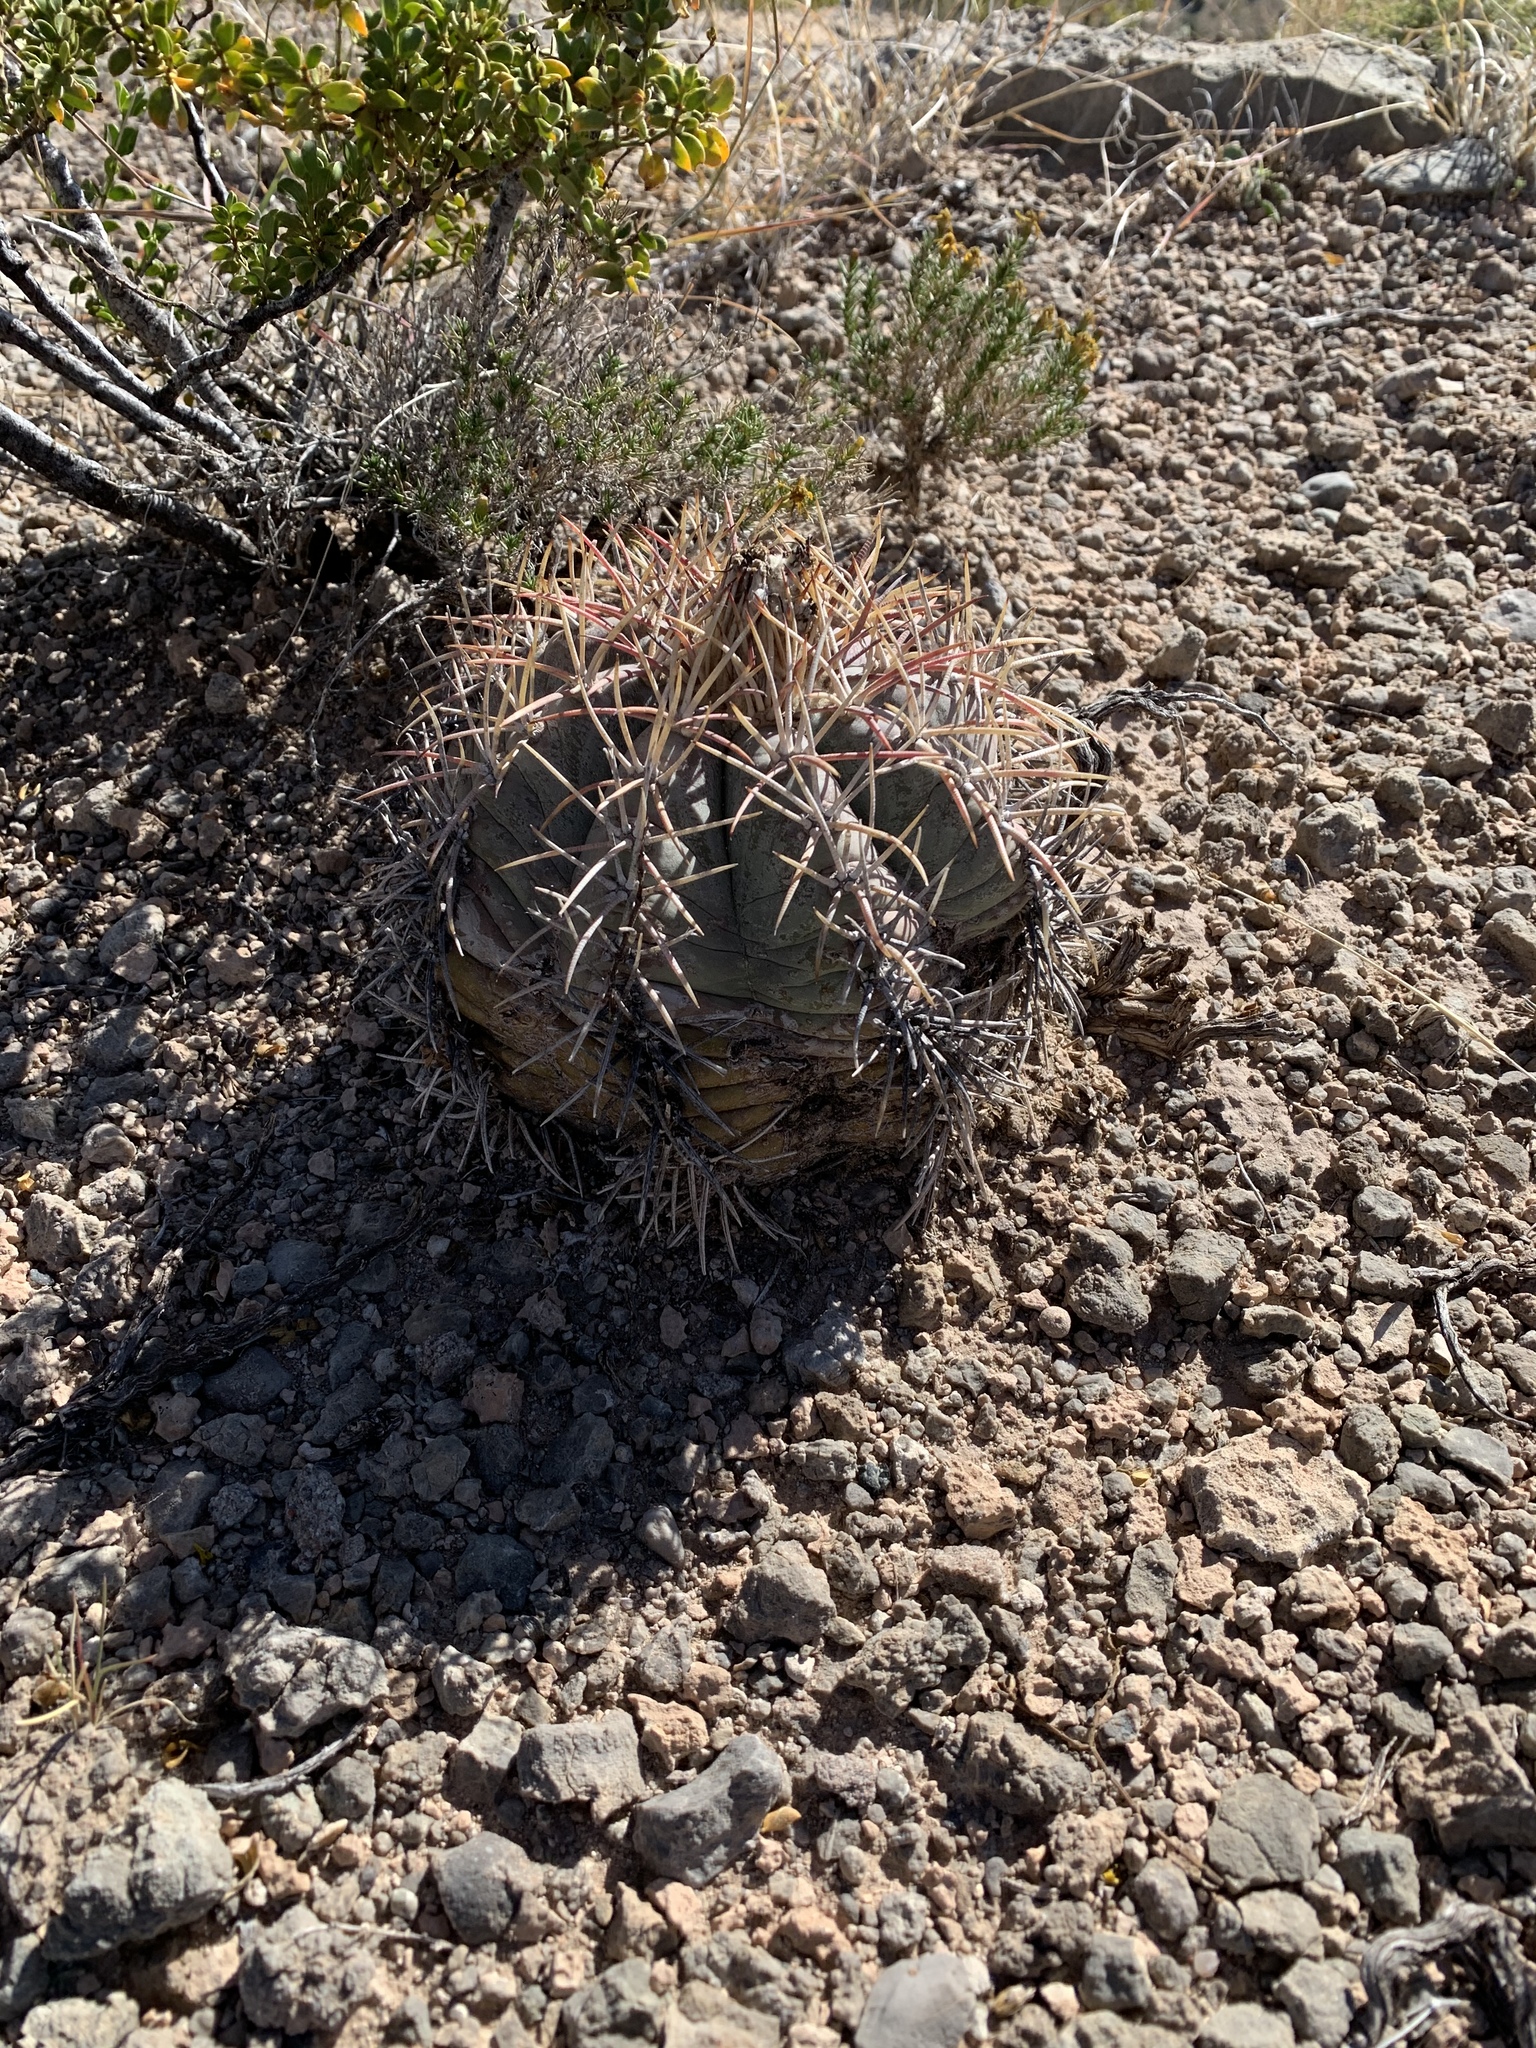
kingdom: Plantae
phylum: Tracheophyta
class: Magnoliopsida
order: Caryophyllales
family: Cactaceae
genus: Echinocactus
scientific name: Echinocactus horizonthalonius
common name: Devilshead
